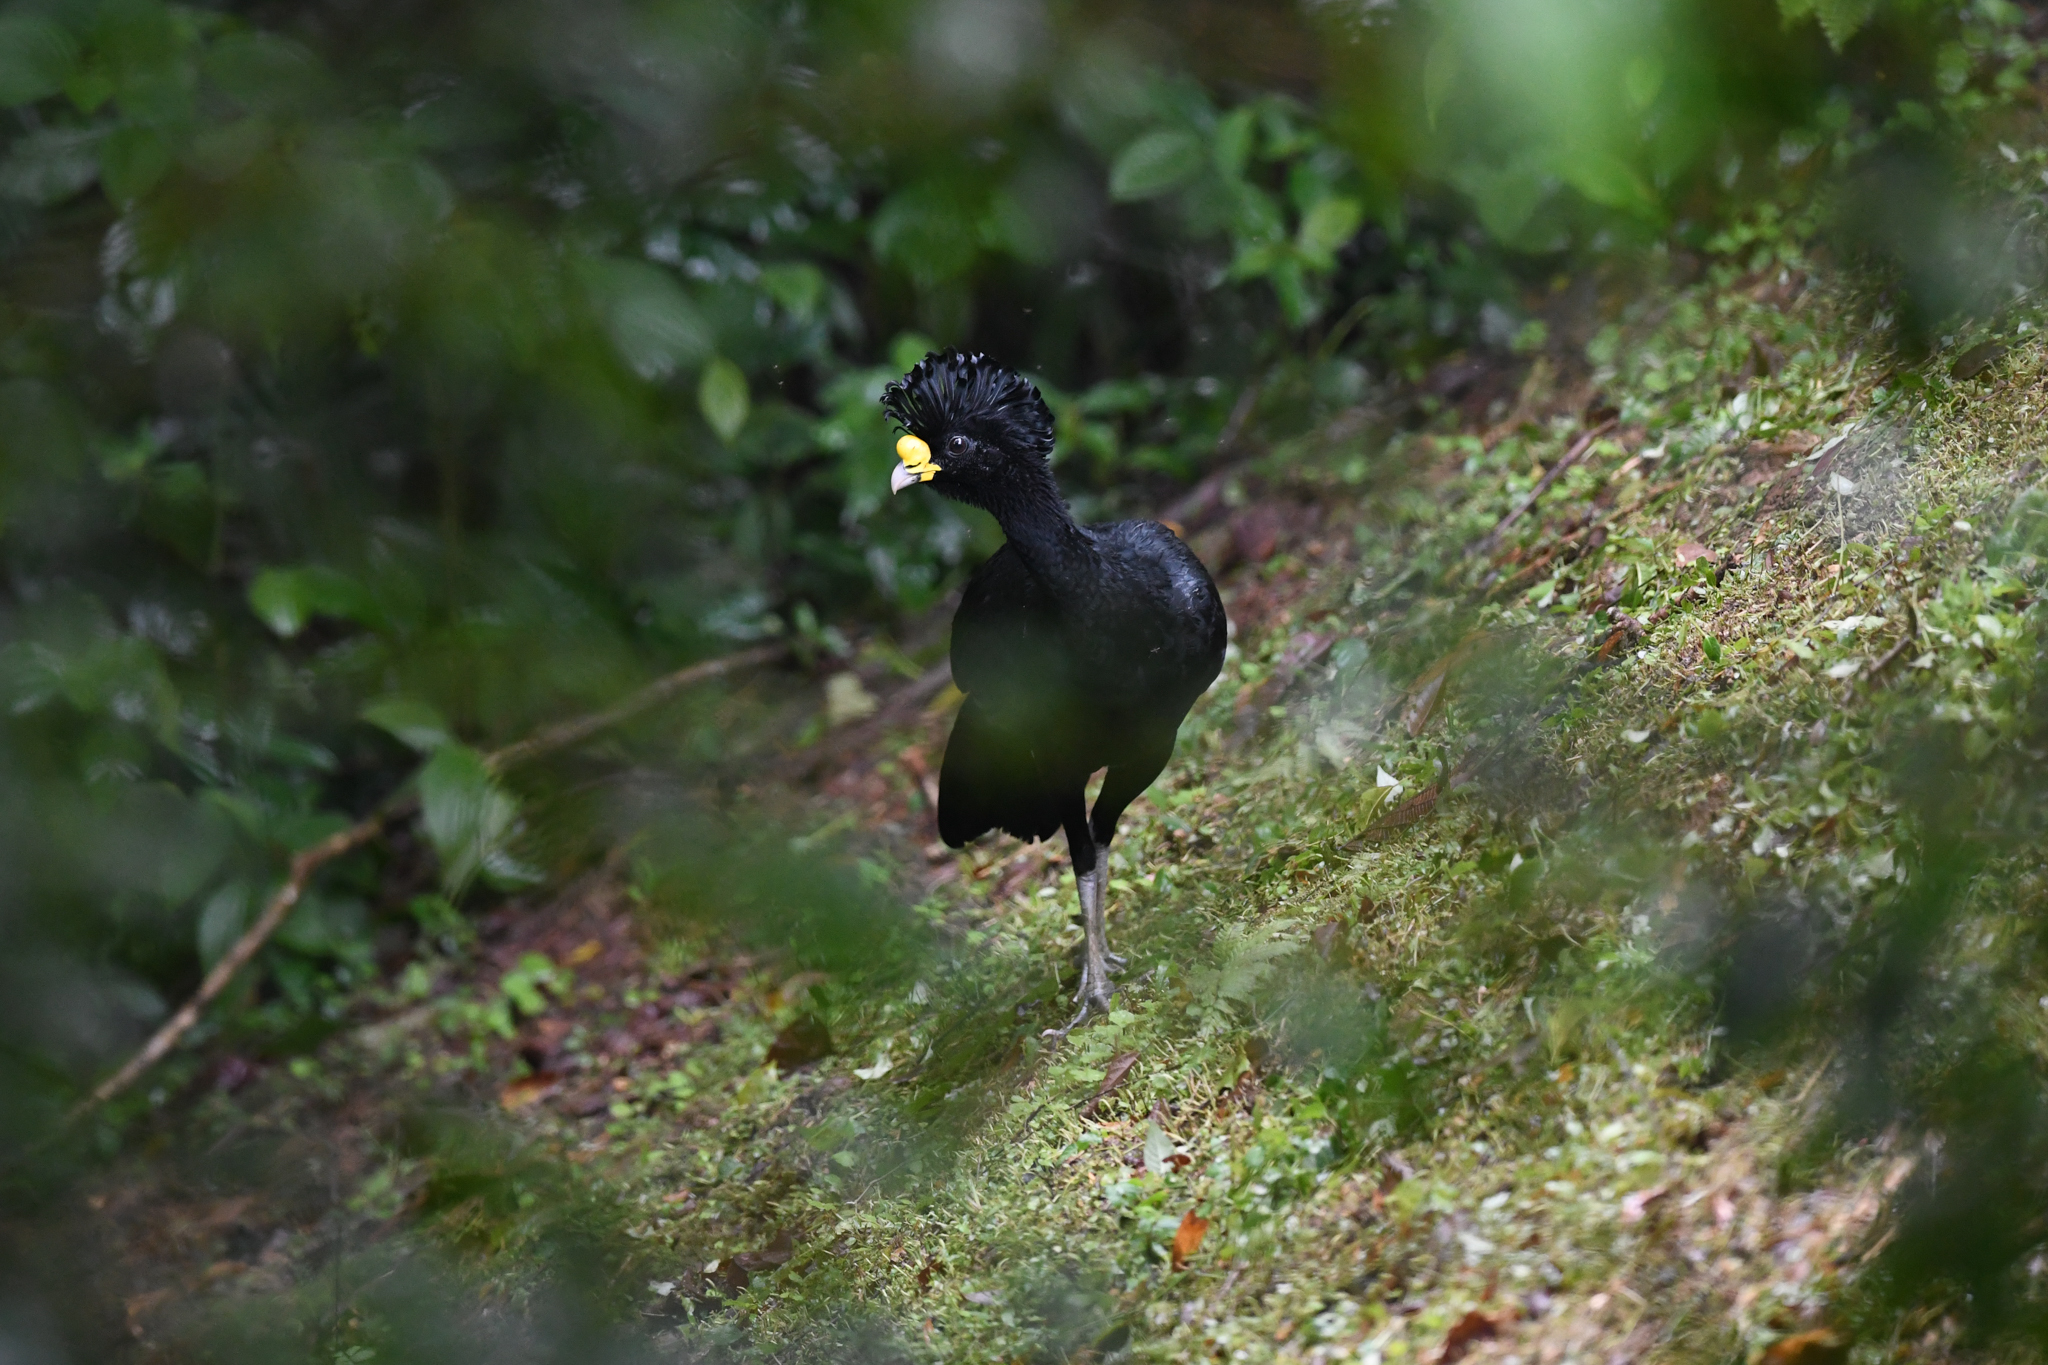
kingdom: Animalia
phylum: Chordata
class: Aves
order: Galliformes
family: Cracidae
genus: Crax
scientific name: Crax rubra
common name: Great curassow
